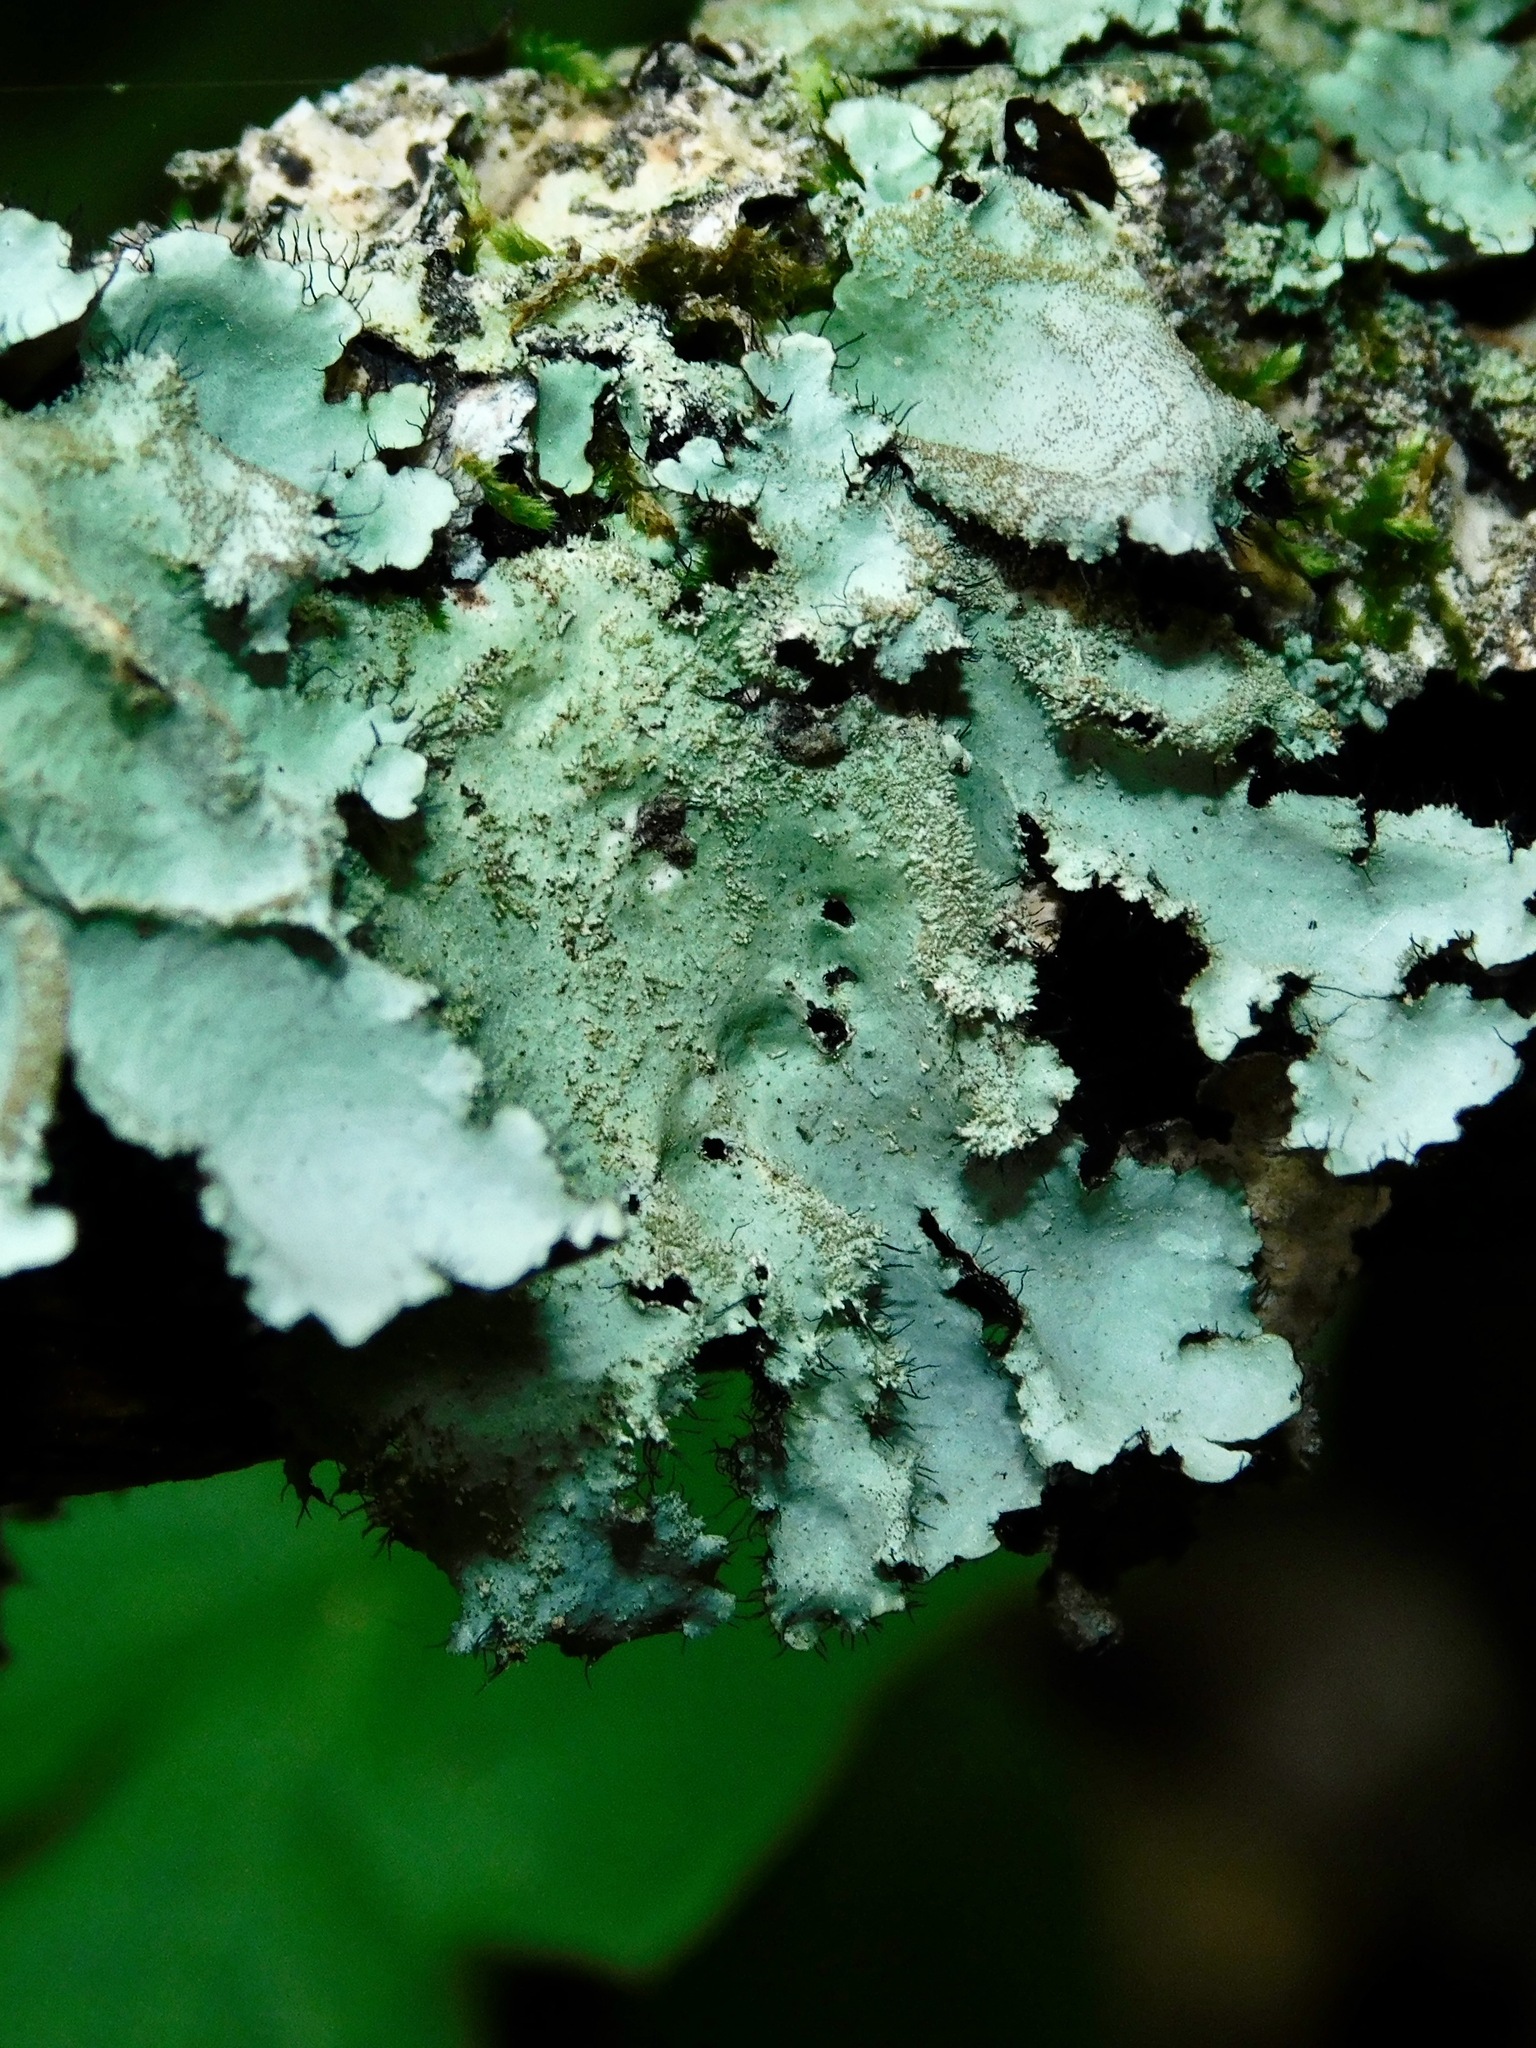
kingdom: Fungi
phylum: Ascomycota
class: Lecanoromycetes
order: Lecanorales
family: Parmeliaceae
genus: Hypotrachyna
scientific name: Hypotrachyna horrescens
